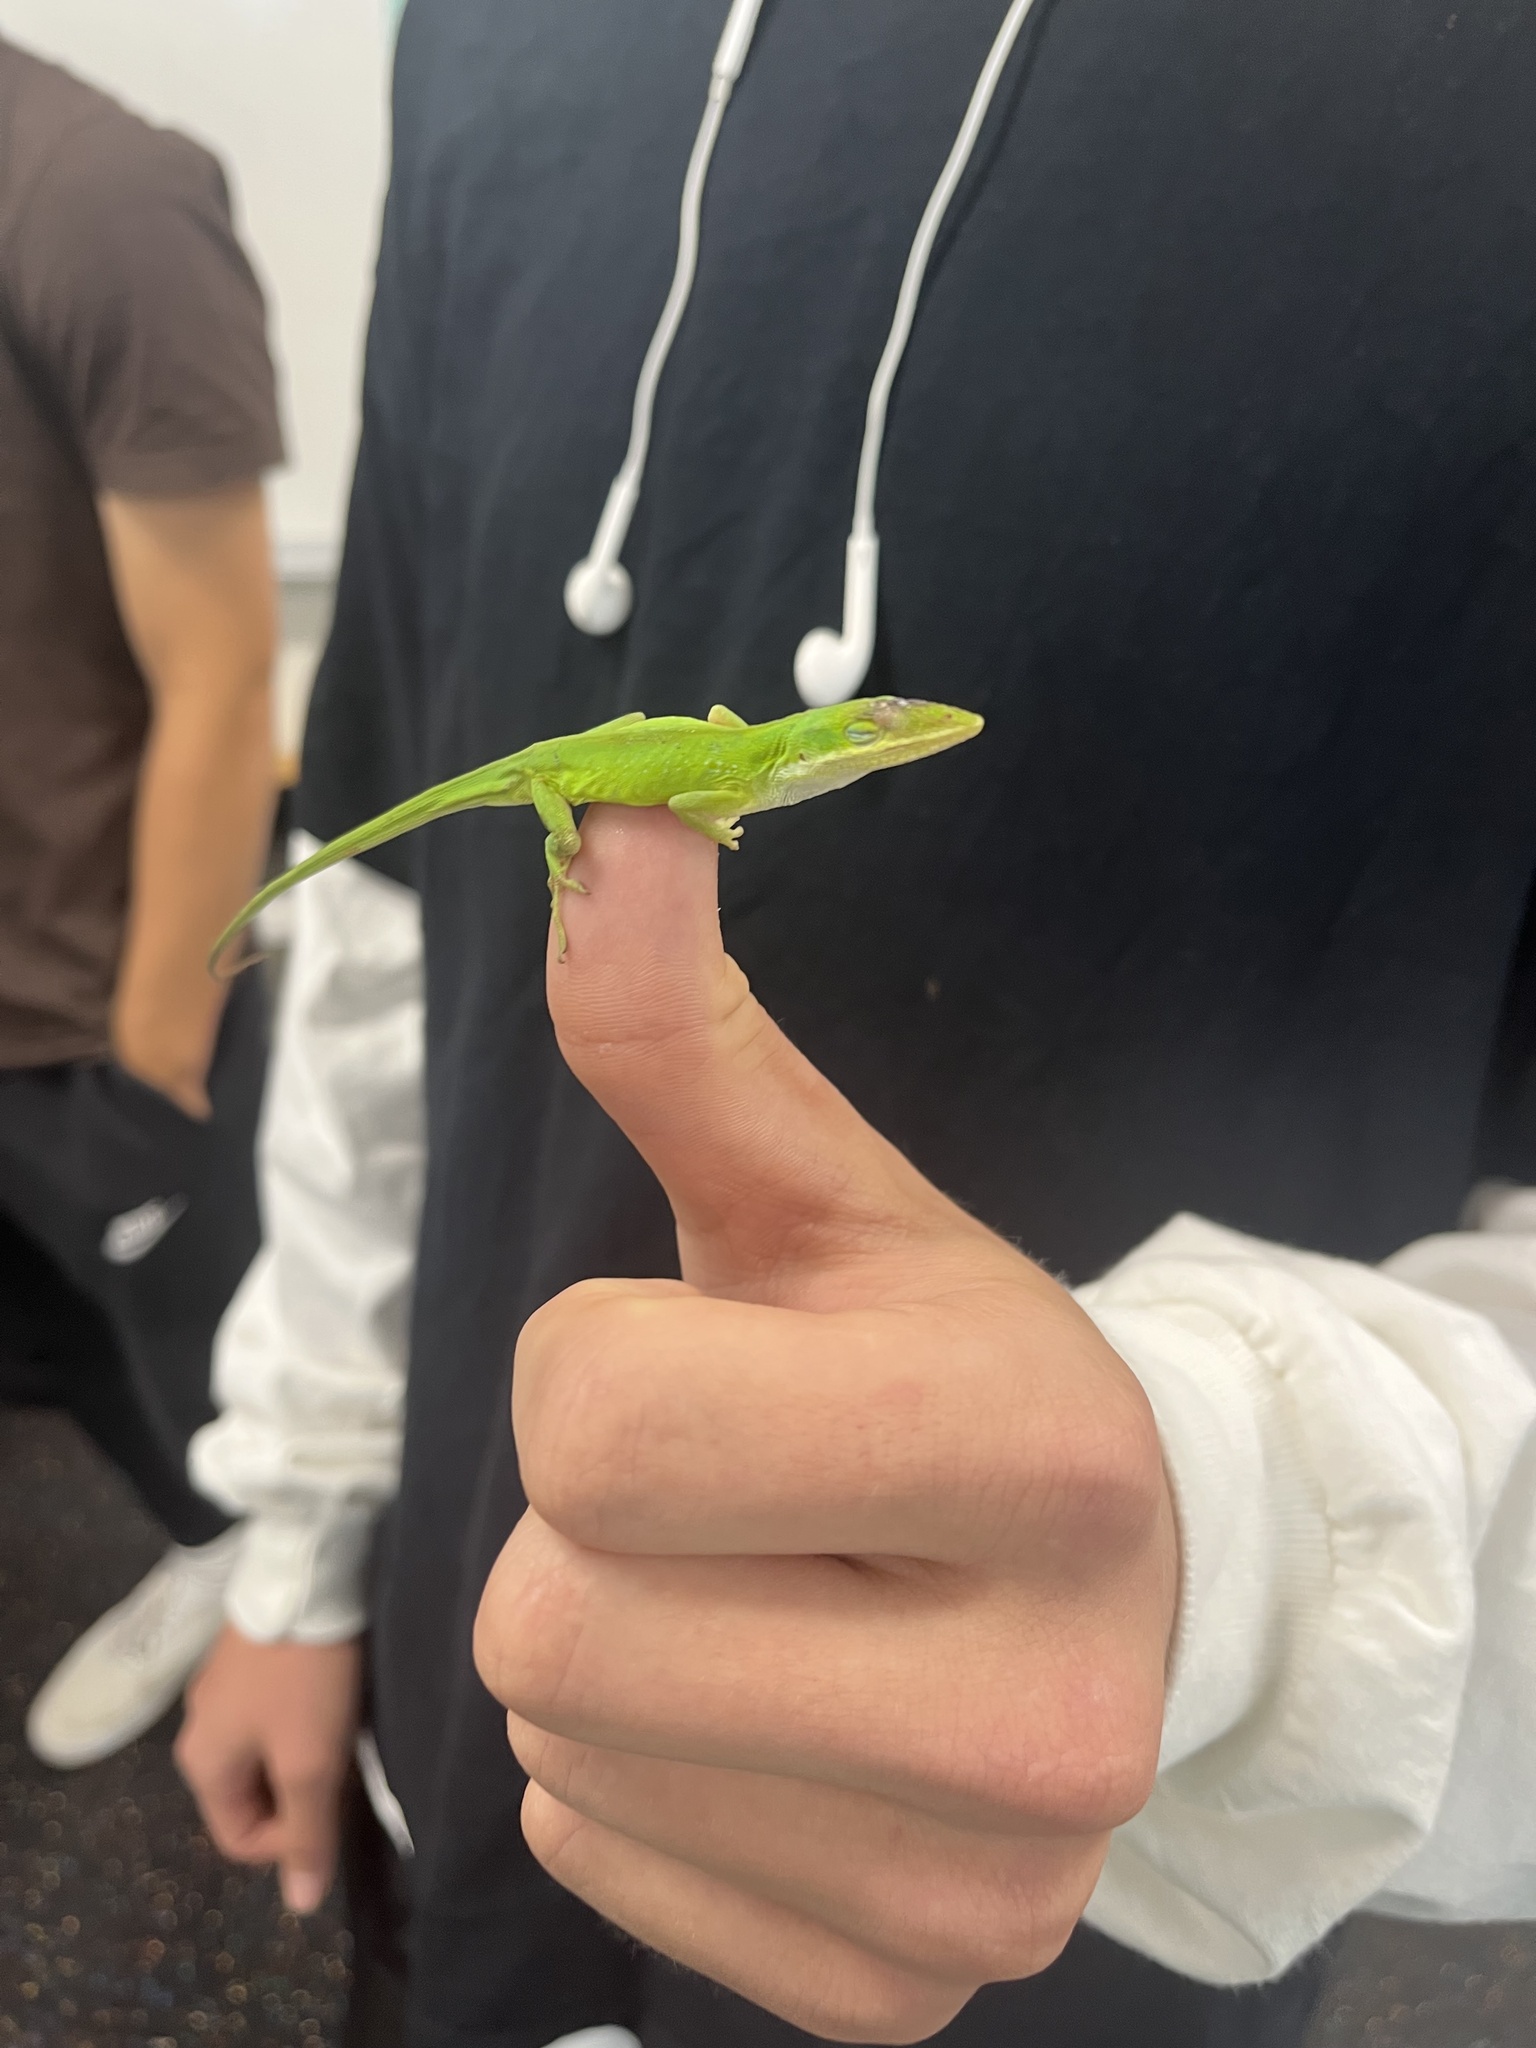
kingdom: Animalia
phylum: Chordata
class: Squamata
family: Dactyloidae
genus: Anolis
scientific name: Anolis carolinensis
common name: Green anole
